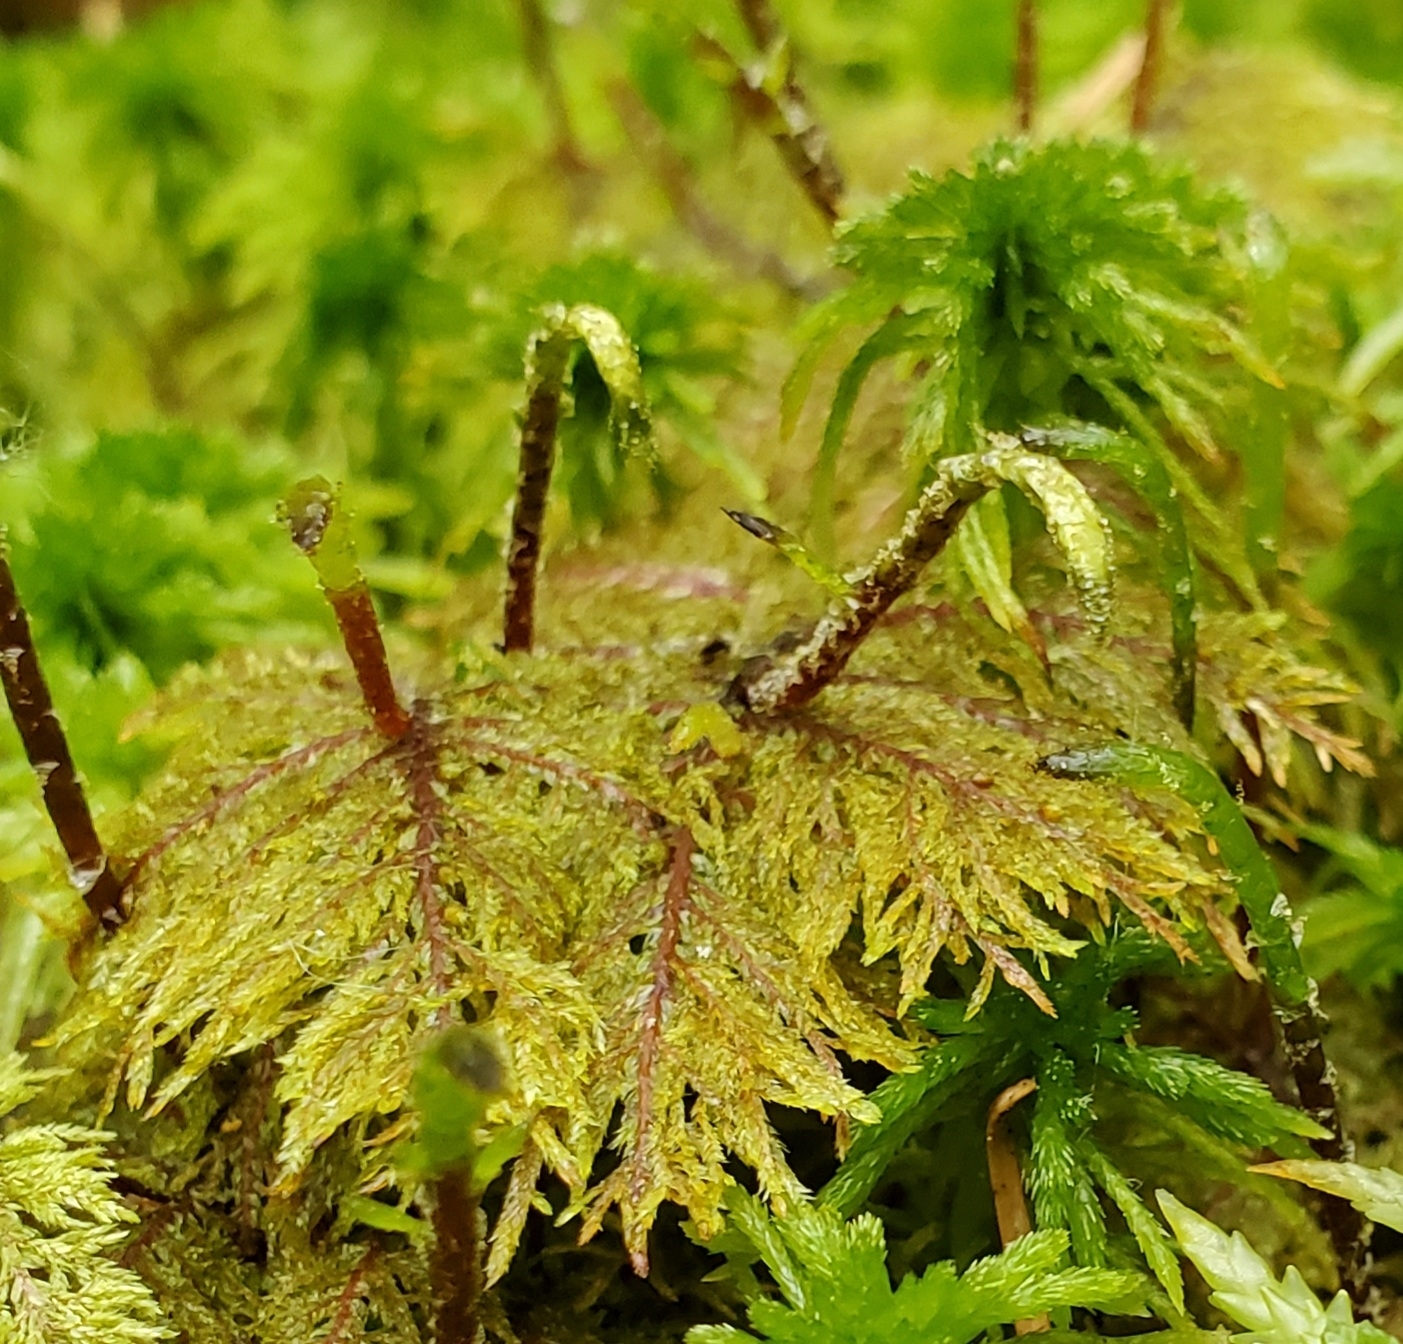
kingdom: Plantae
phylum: Bryophyta
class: Bryopsida
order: Hypnales
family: Hylocomiaceae
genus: Hylocomium
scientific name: Hylocomium splendens
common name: Stairstep moss
